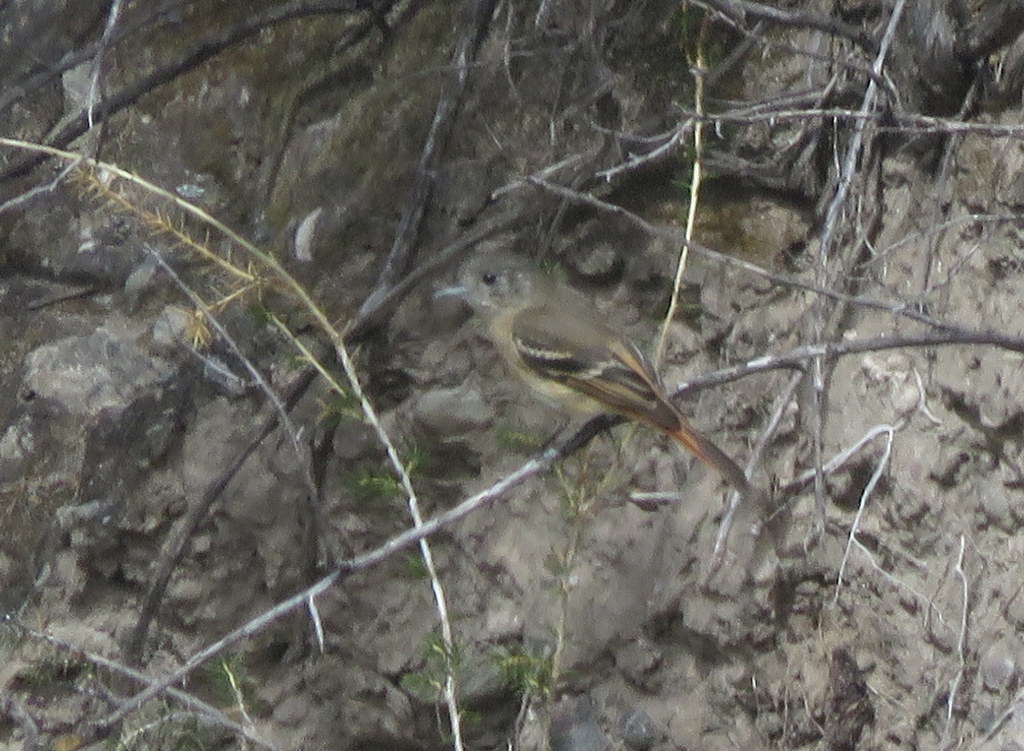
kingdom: Animalia
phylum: Chordata
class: Aves
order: Passeriformes
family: Tyrannidae
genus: Knipolegus
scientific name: Knipolegus aterrimus
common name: White-winged black tyrant
